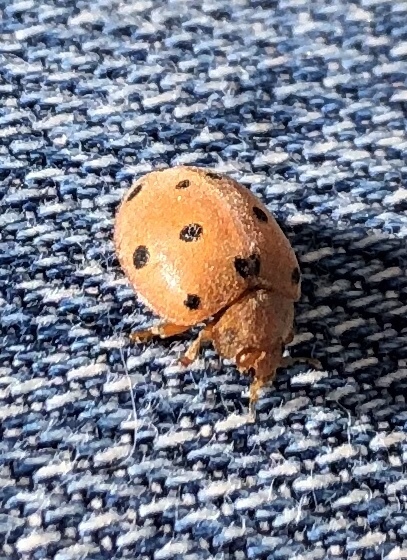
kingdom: Animalia
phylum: Arthropoda
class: Insecta
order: Coleoptera
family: Coccinellidae
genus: Henosepilachna
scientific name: Henosepilachna argus
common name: Bryony ladybird
